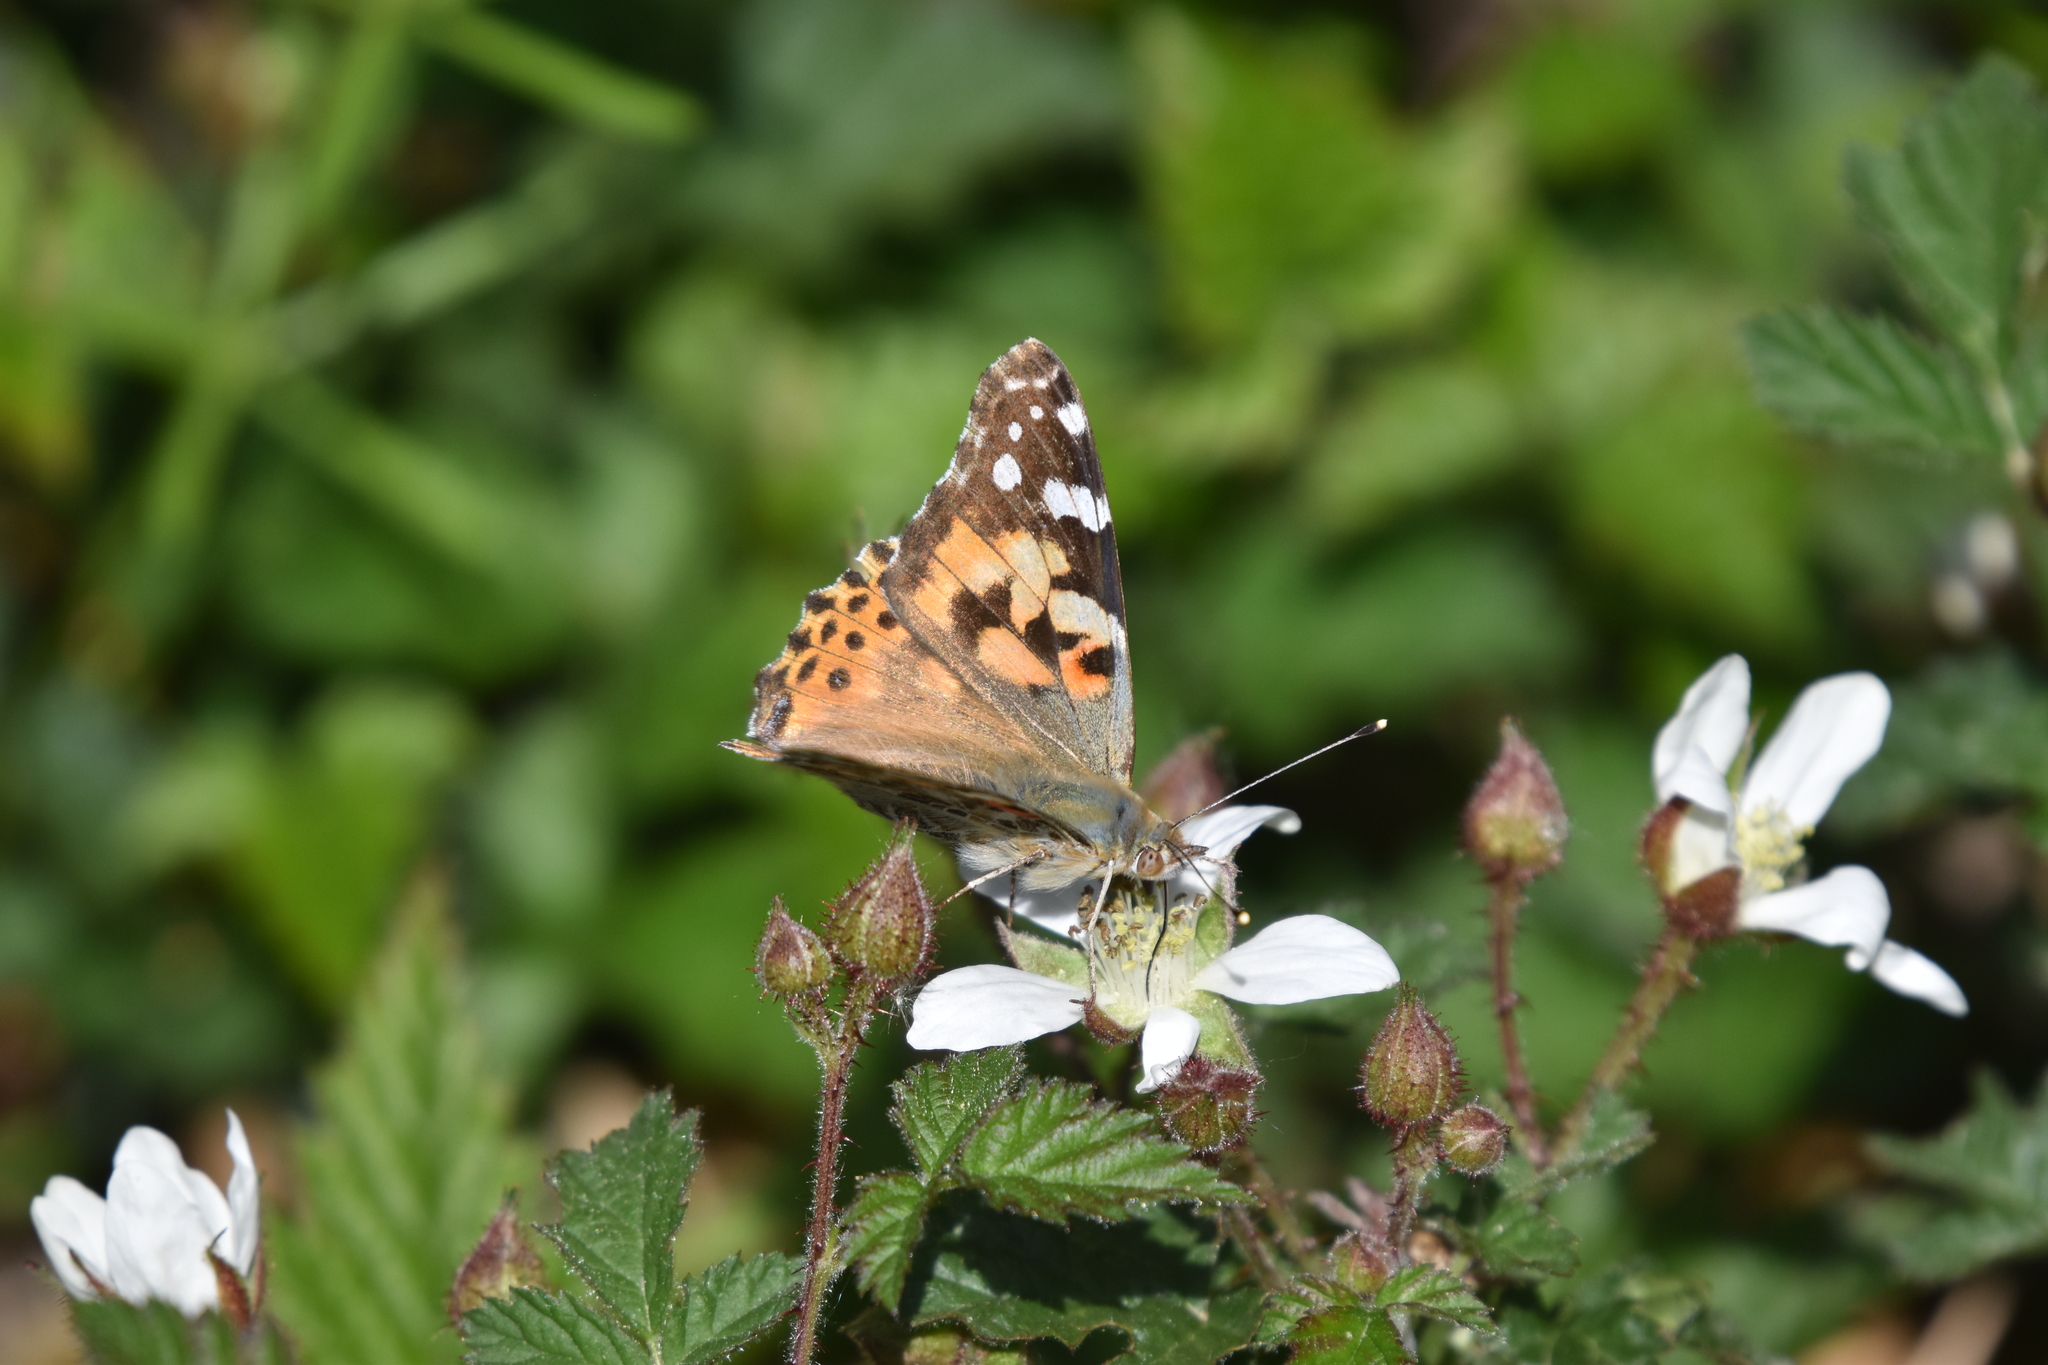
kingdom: Animalia
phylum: Arthropoda
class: Insecta
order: Lepidoptera
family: Nymphalidae
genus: Vanessa
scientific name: Vanessa cardui
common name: Painted lady
